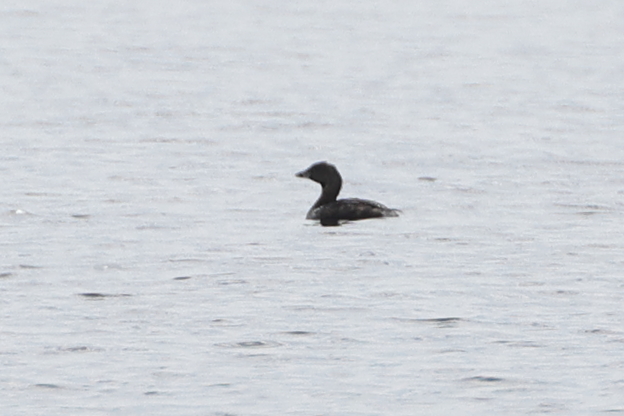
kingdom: Animalia
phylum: Chordata
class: Aves
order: Podicipediformes
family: Podicipedidae
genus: Podilymbus
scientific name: Podilymbus podiceps
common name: Pied-billed grebe
